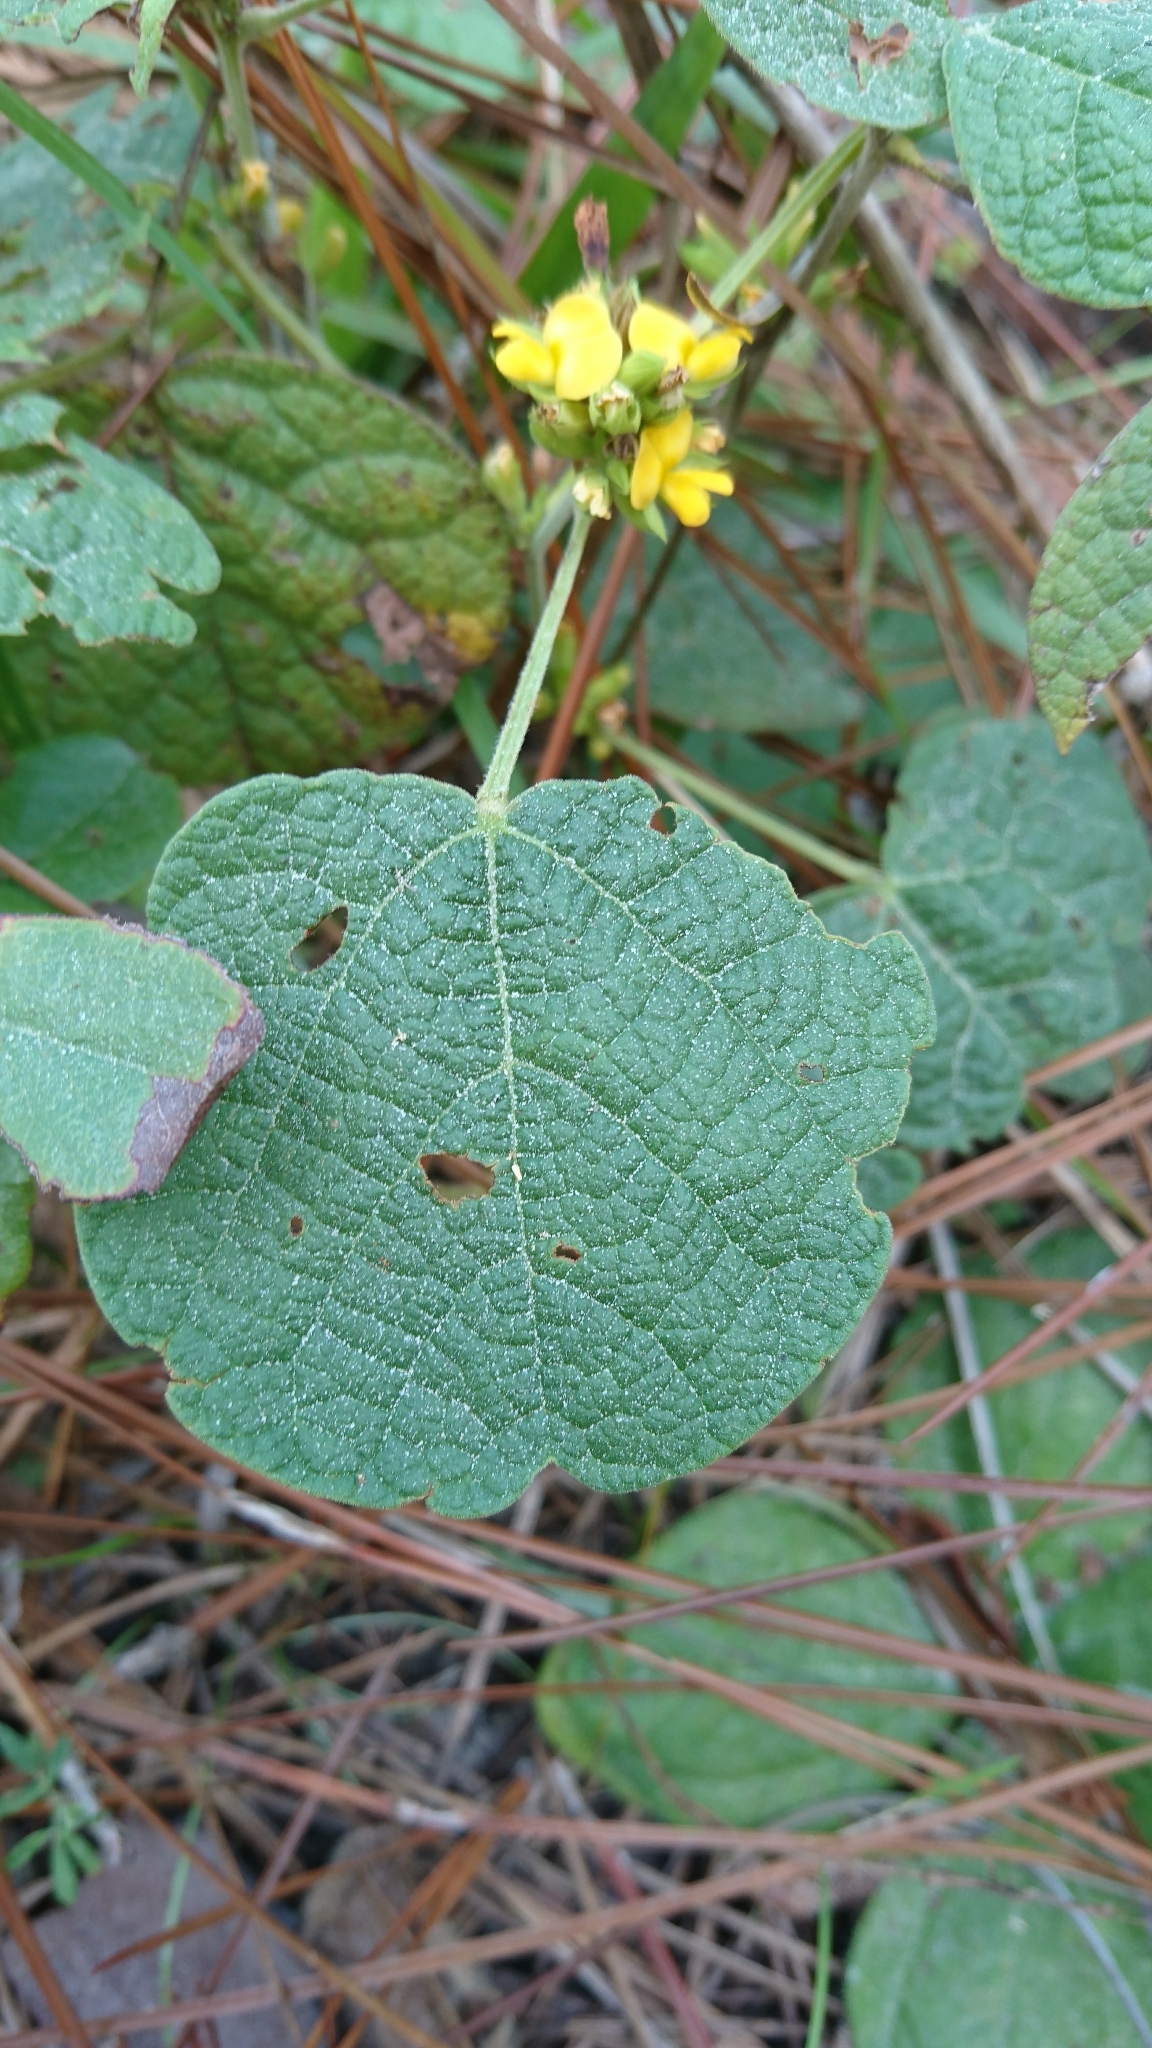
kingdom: Plantae
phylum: Tracheophyta
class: Magnoliopsida
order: Fabales
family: Fabaceae
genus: Rhynchosia
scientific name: Rhynchosia reniformis
